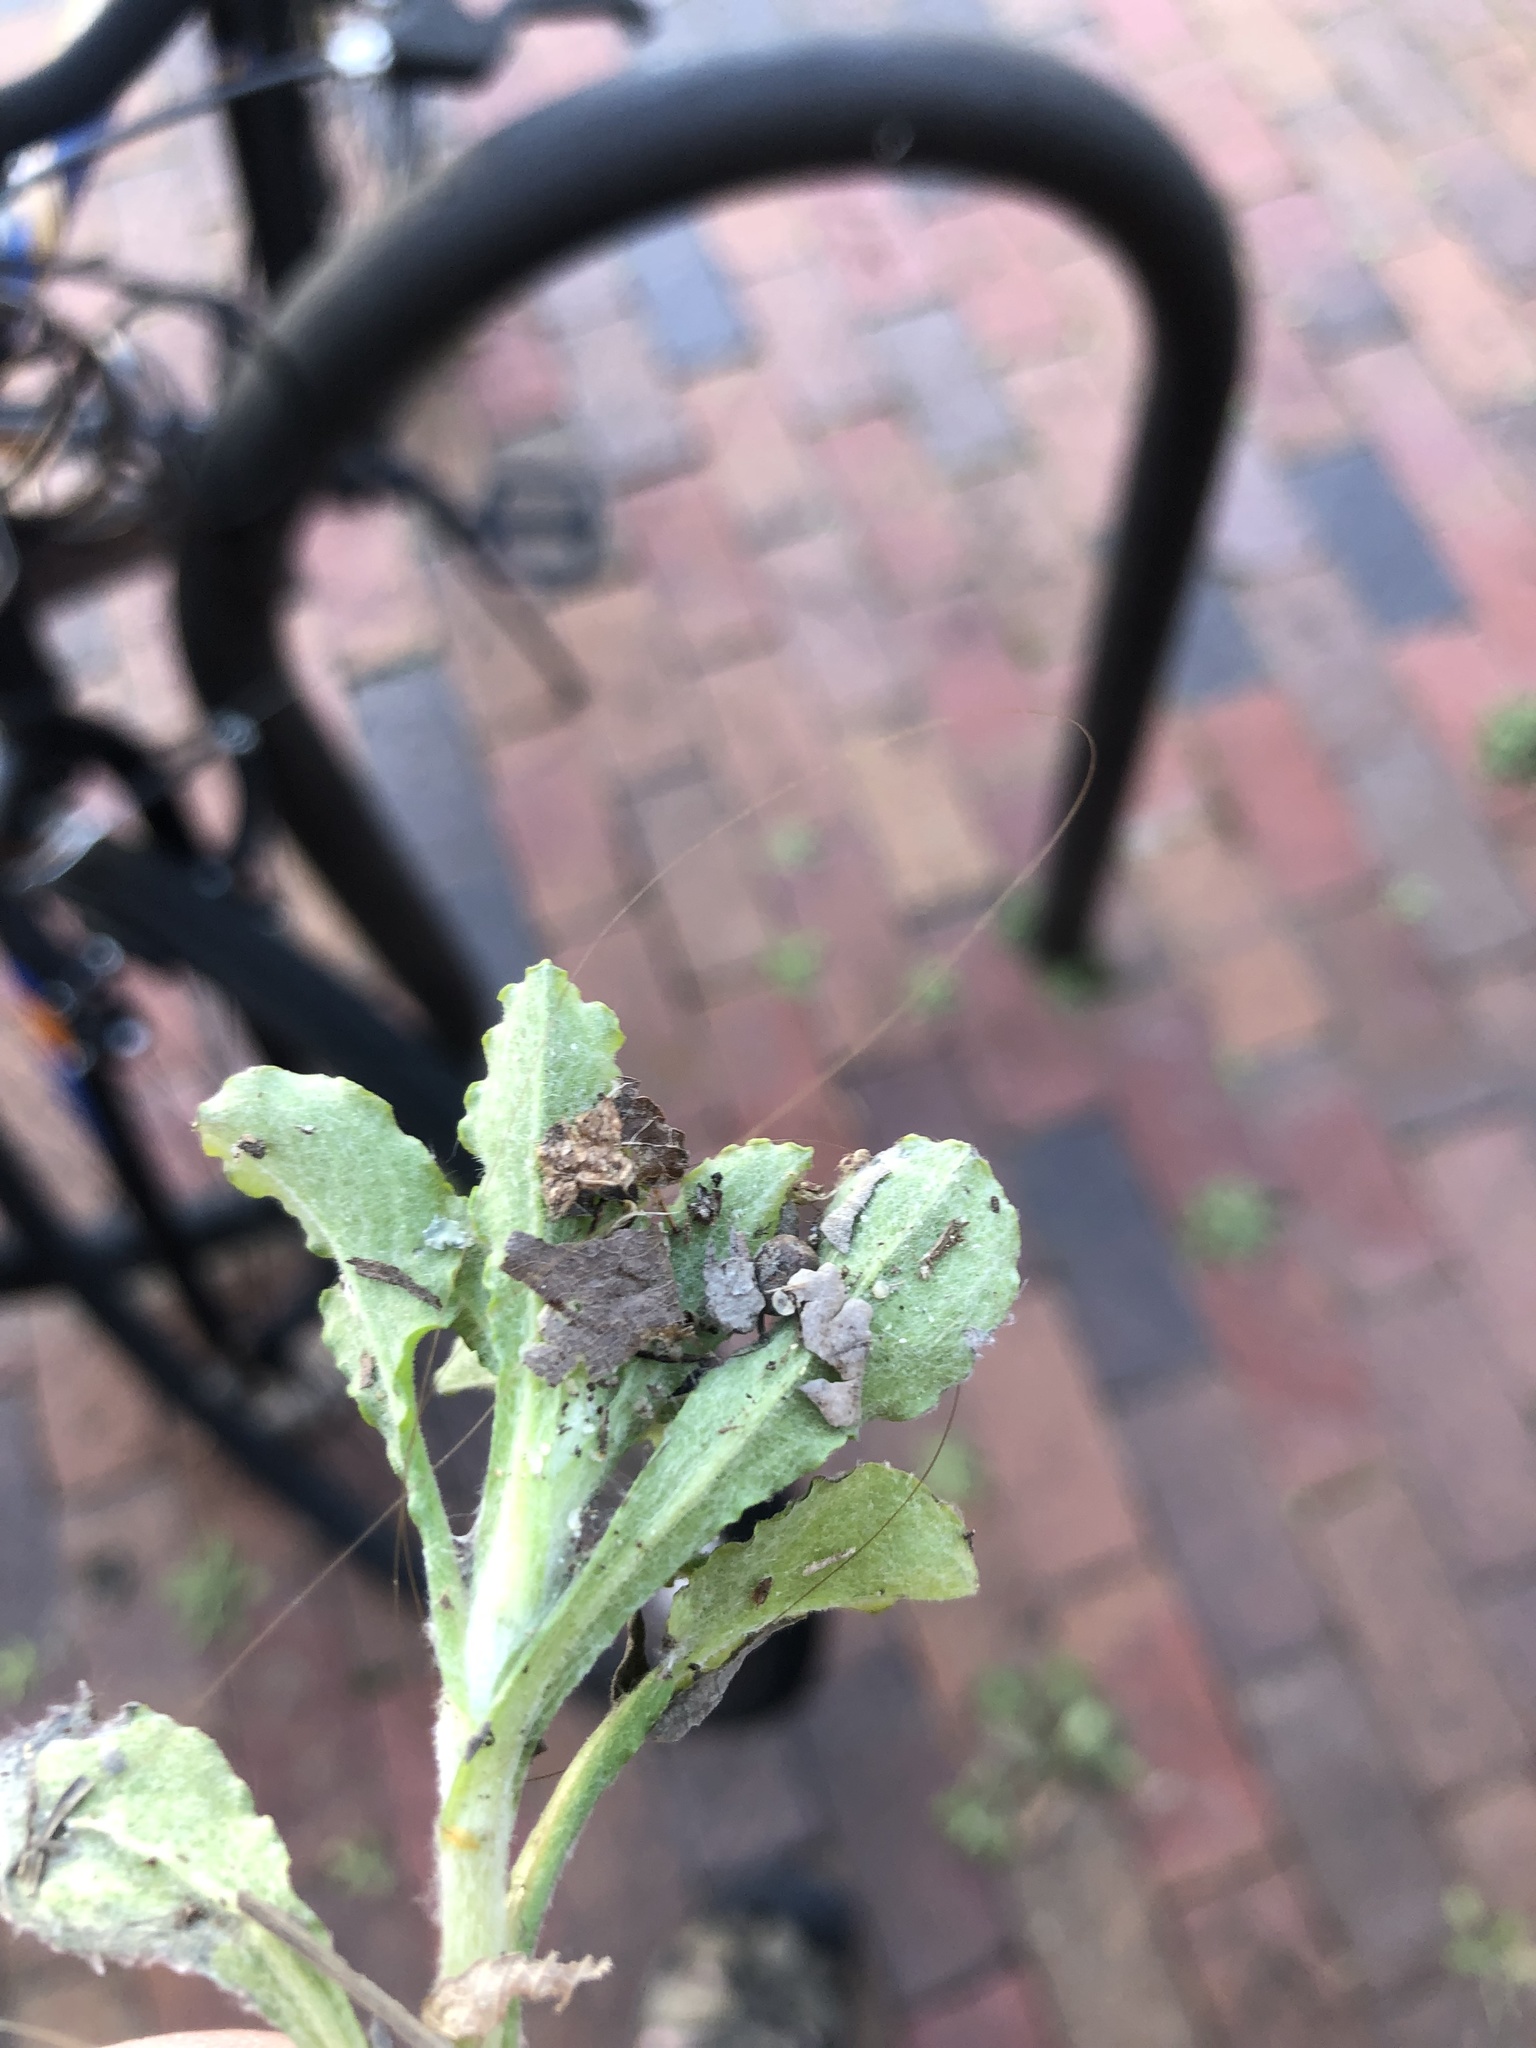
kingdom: Plantae
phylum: Tracheophyta
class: Magnoliopsida
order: Asterales
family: Asteraceae
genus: Gamochaeta
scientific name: Gamochaeta pensylvanica
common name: Pennsylvania everlasting
